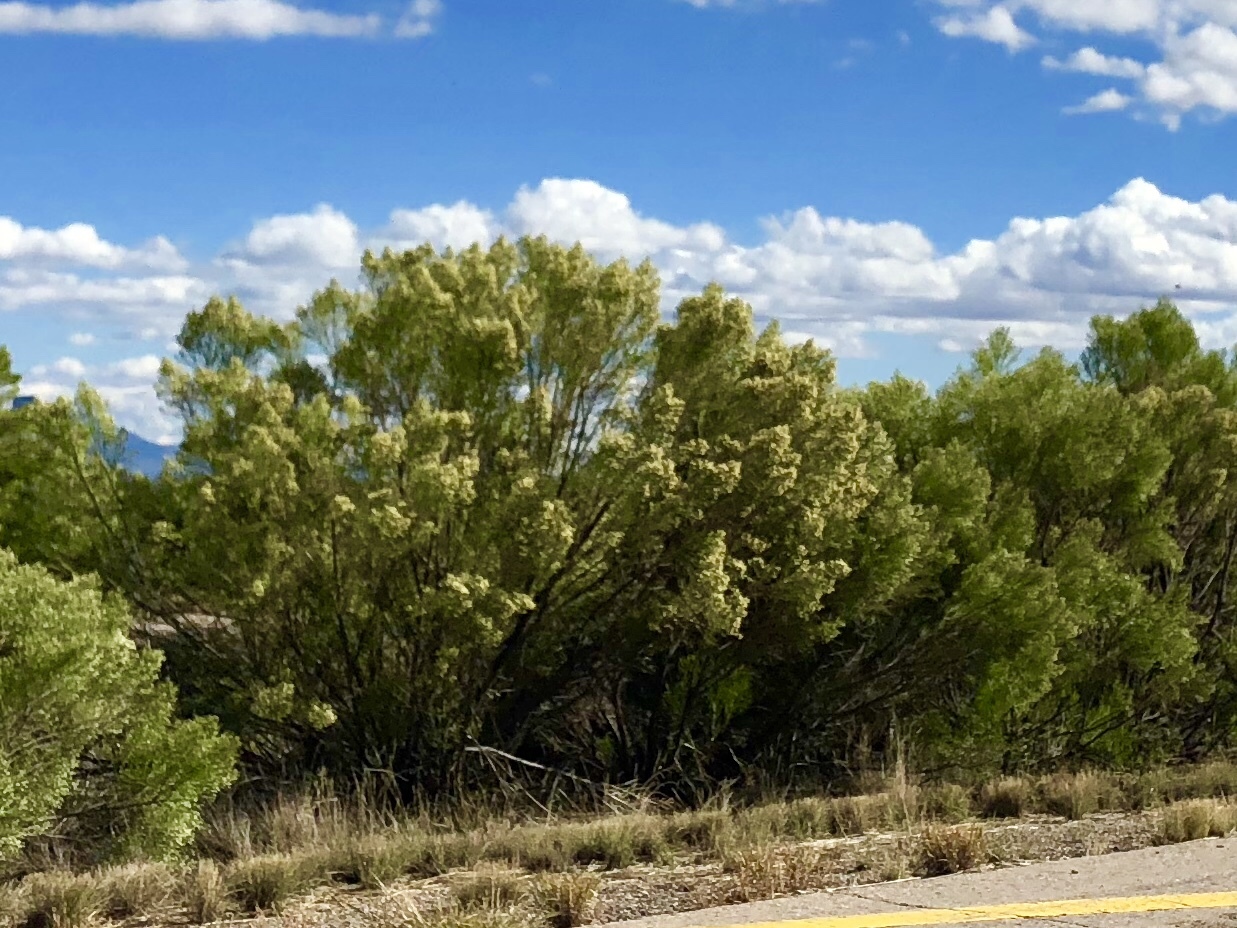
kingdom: Plantae
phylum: Tracheophyta
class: Magnoliopsida
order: Asterales
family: Asteraceae
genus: Baccharis
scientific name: Baccharis sarothroides
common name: Desert-broom
